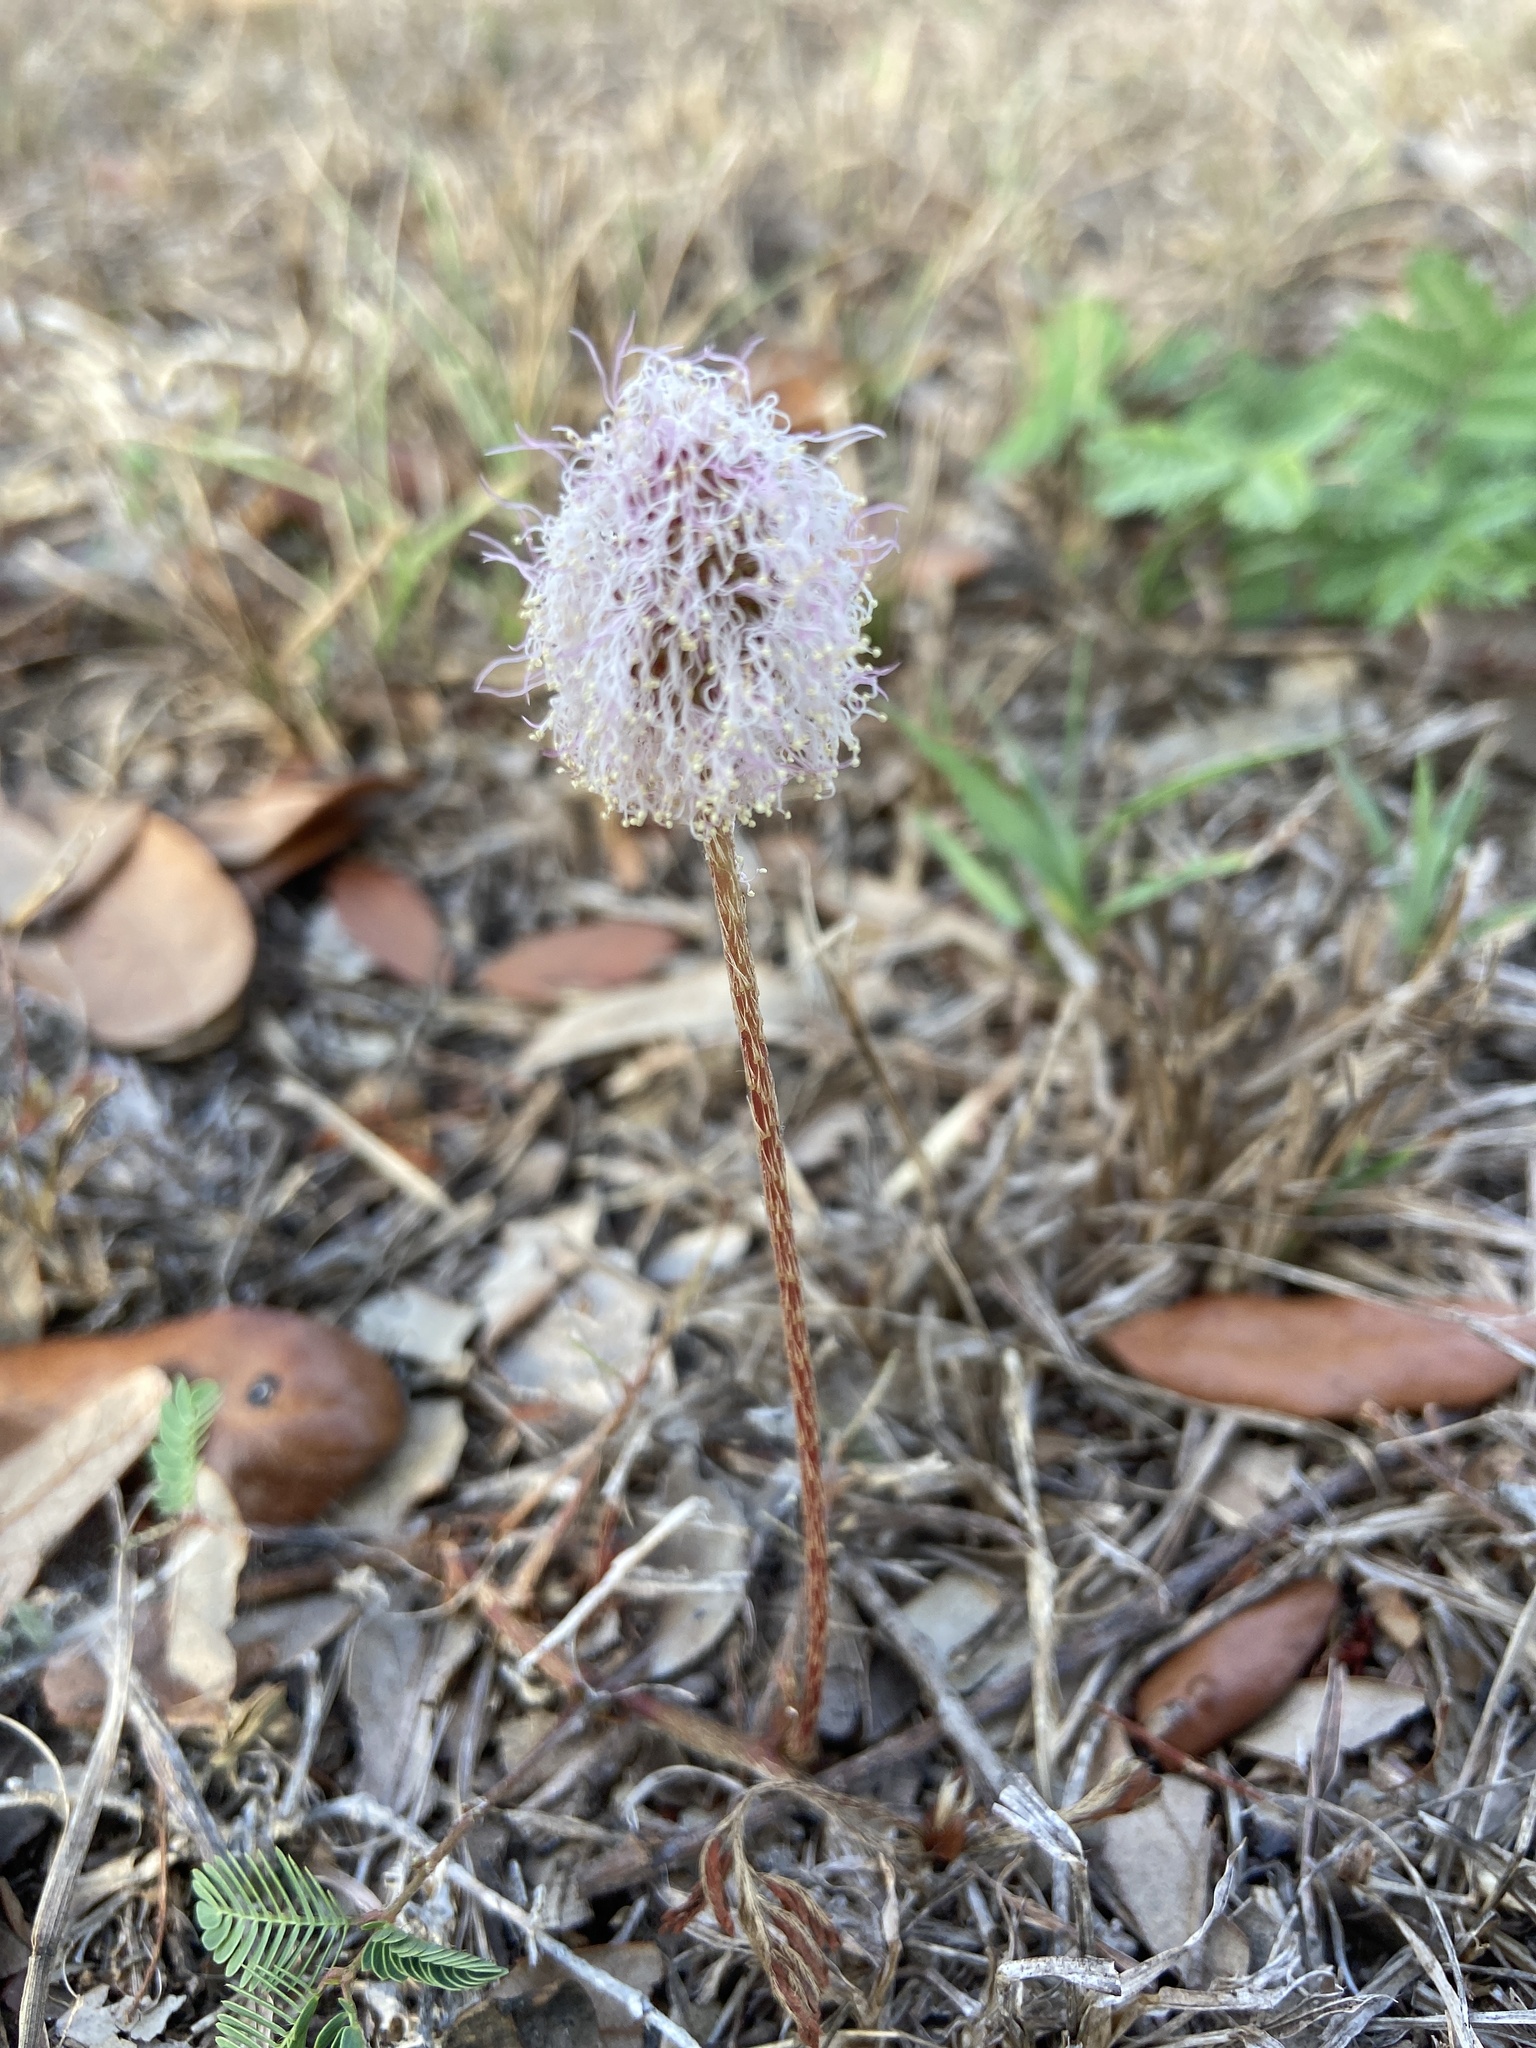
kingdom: Plantae
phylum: Tracheophyta
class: Magnoliopsida
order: Fabales
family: Fabaceae
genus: Mimosa
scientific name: Mimosa strigillosa
